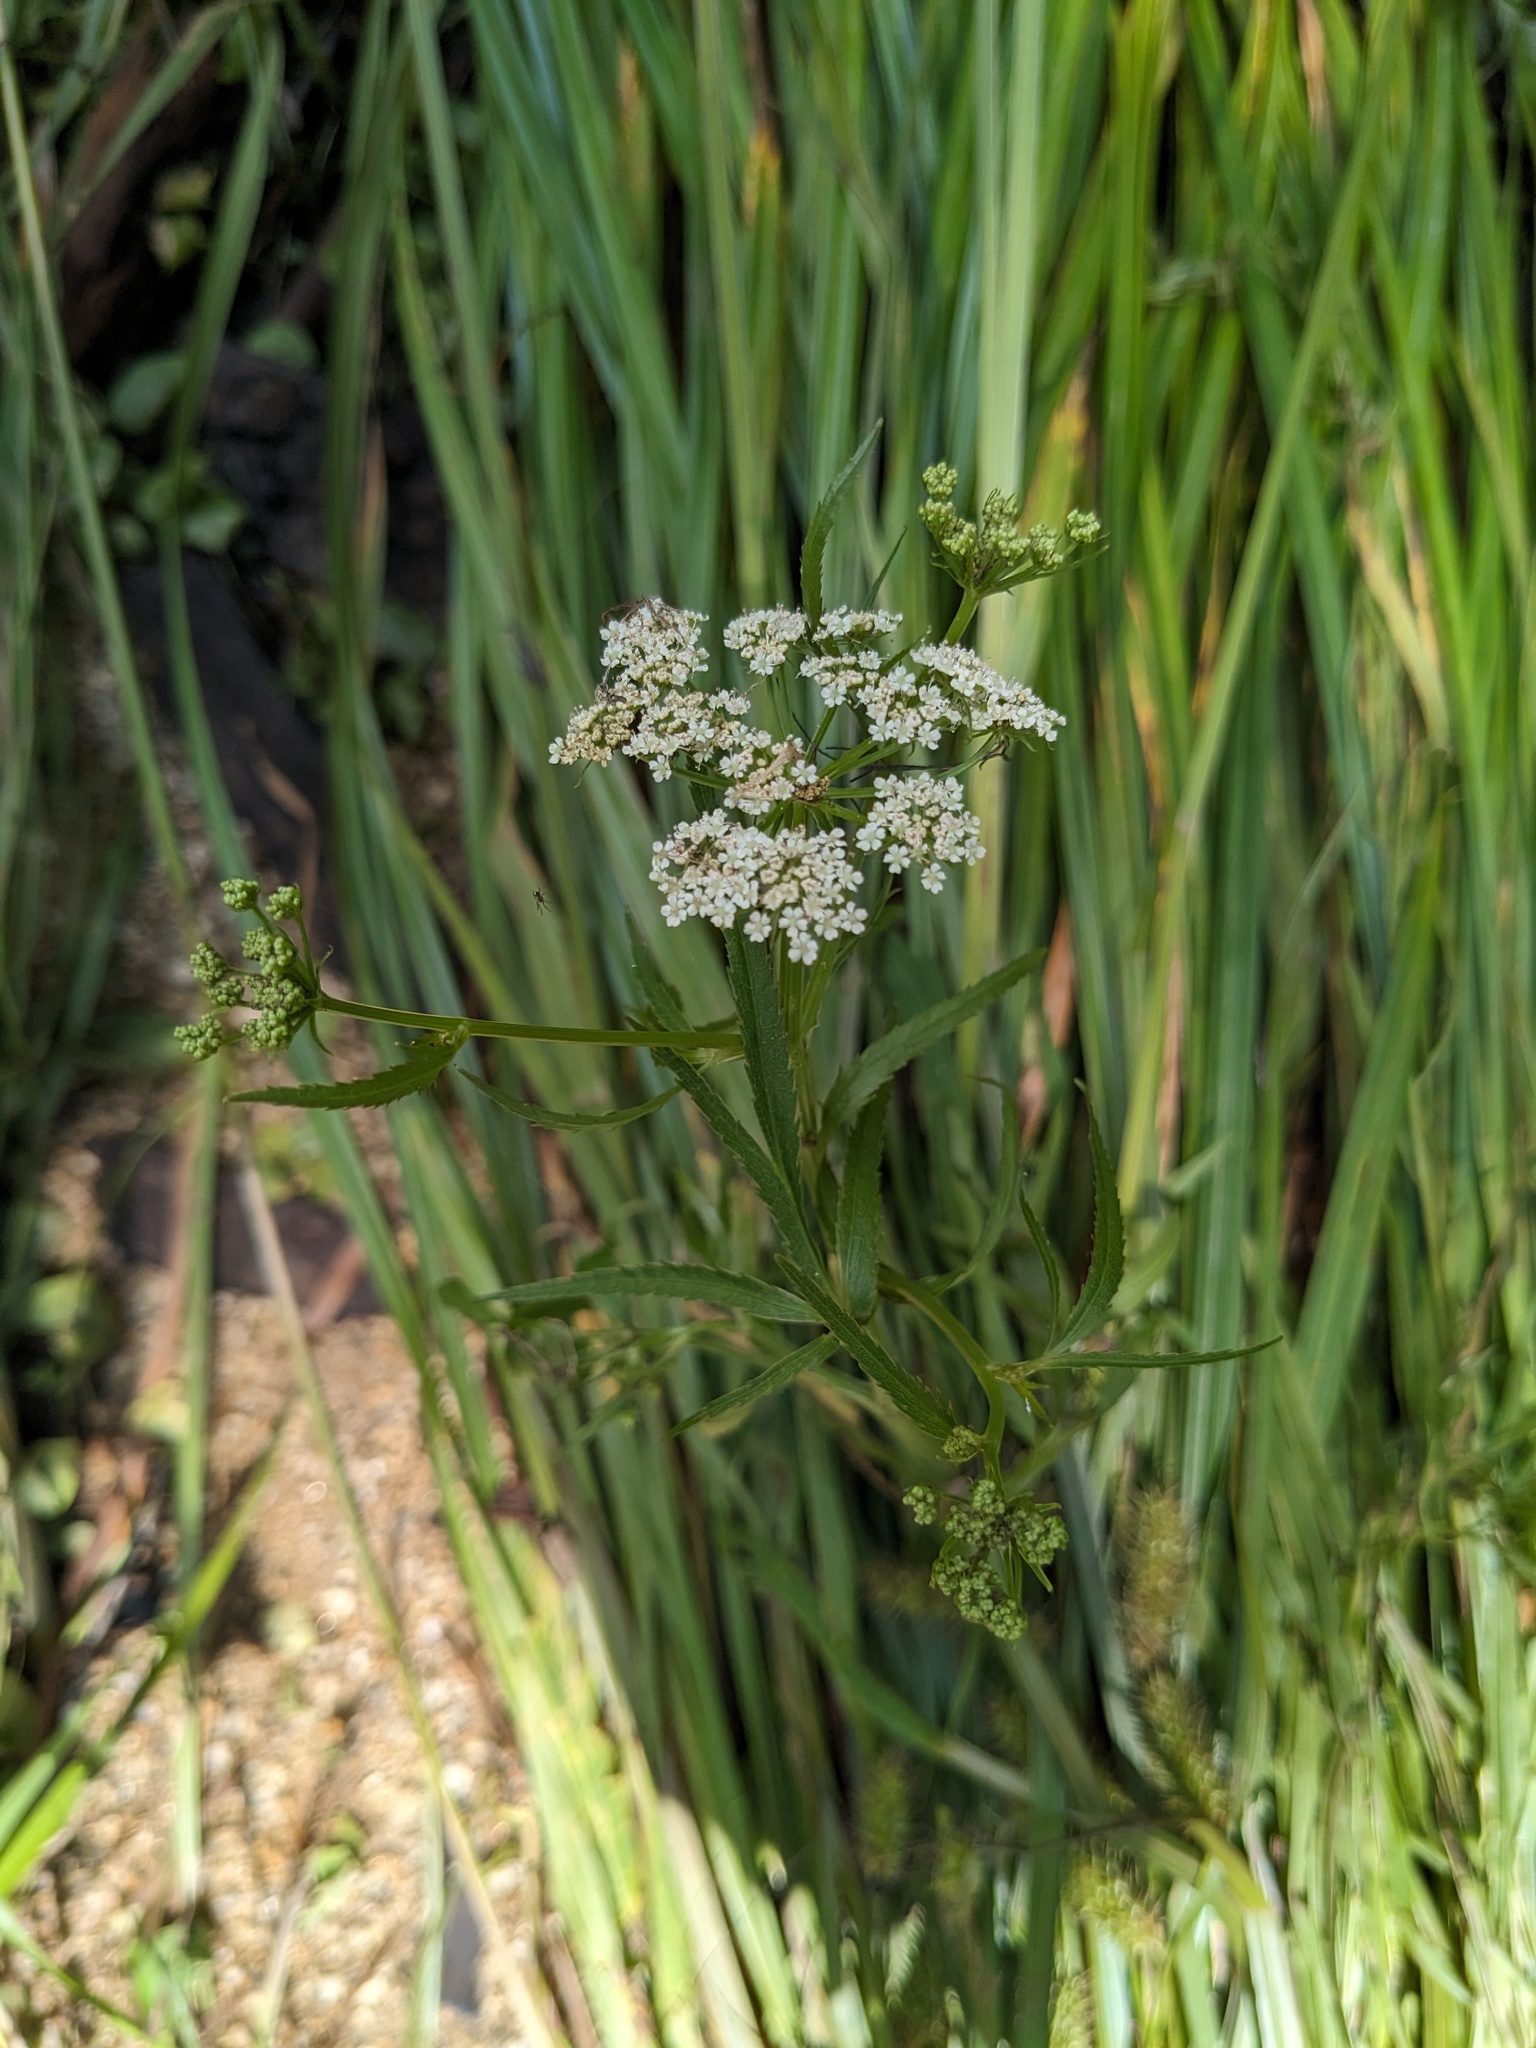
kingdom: Plantae
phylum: Tracheophyta
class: Magnoliopsida
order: Apiales
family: Apiaceae
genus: Sium
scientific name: Sium suave
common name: Hemlock water-parsnip
